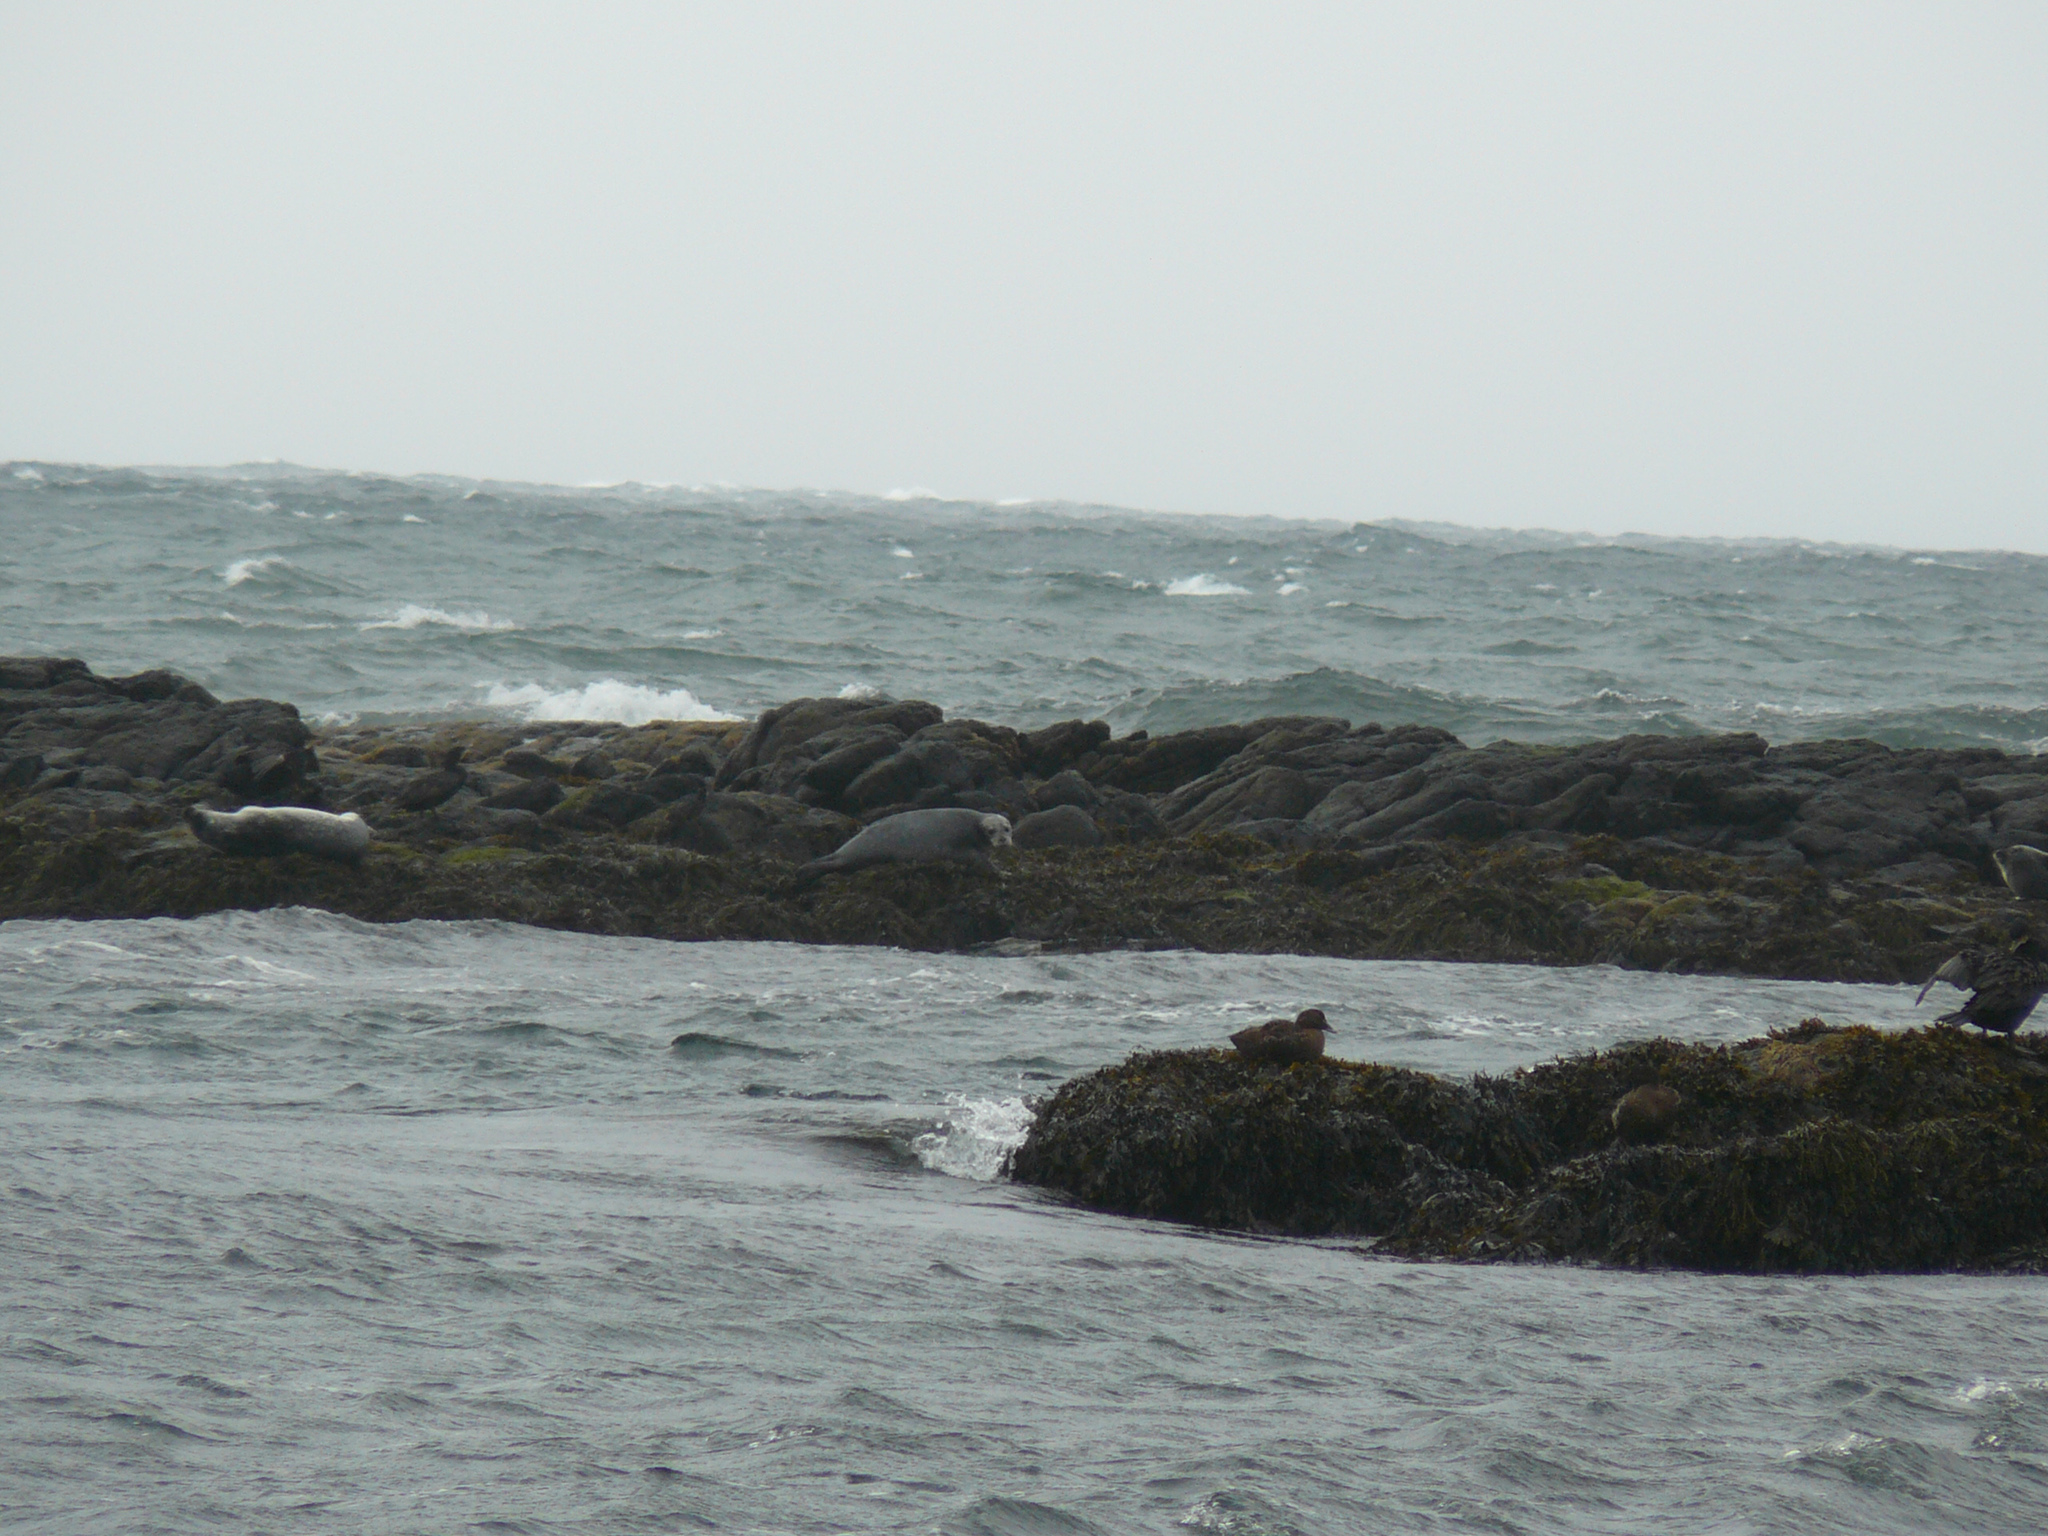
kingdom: Animalia
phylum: Chordata
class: Mammalia
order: Carnivora
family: Phocidae
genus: Phoca
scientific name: Phoca vitulina
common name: Harbor seal
